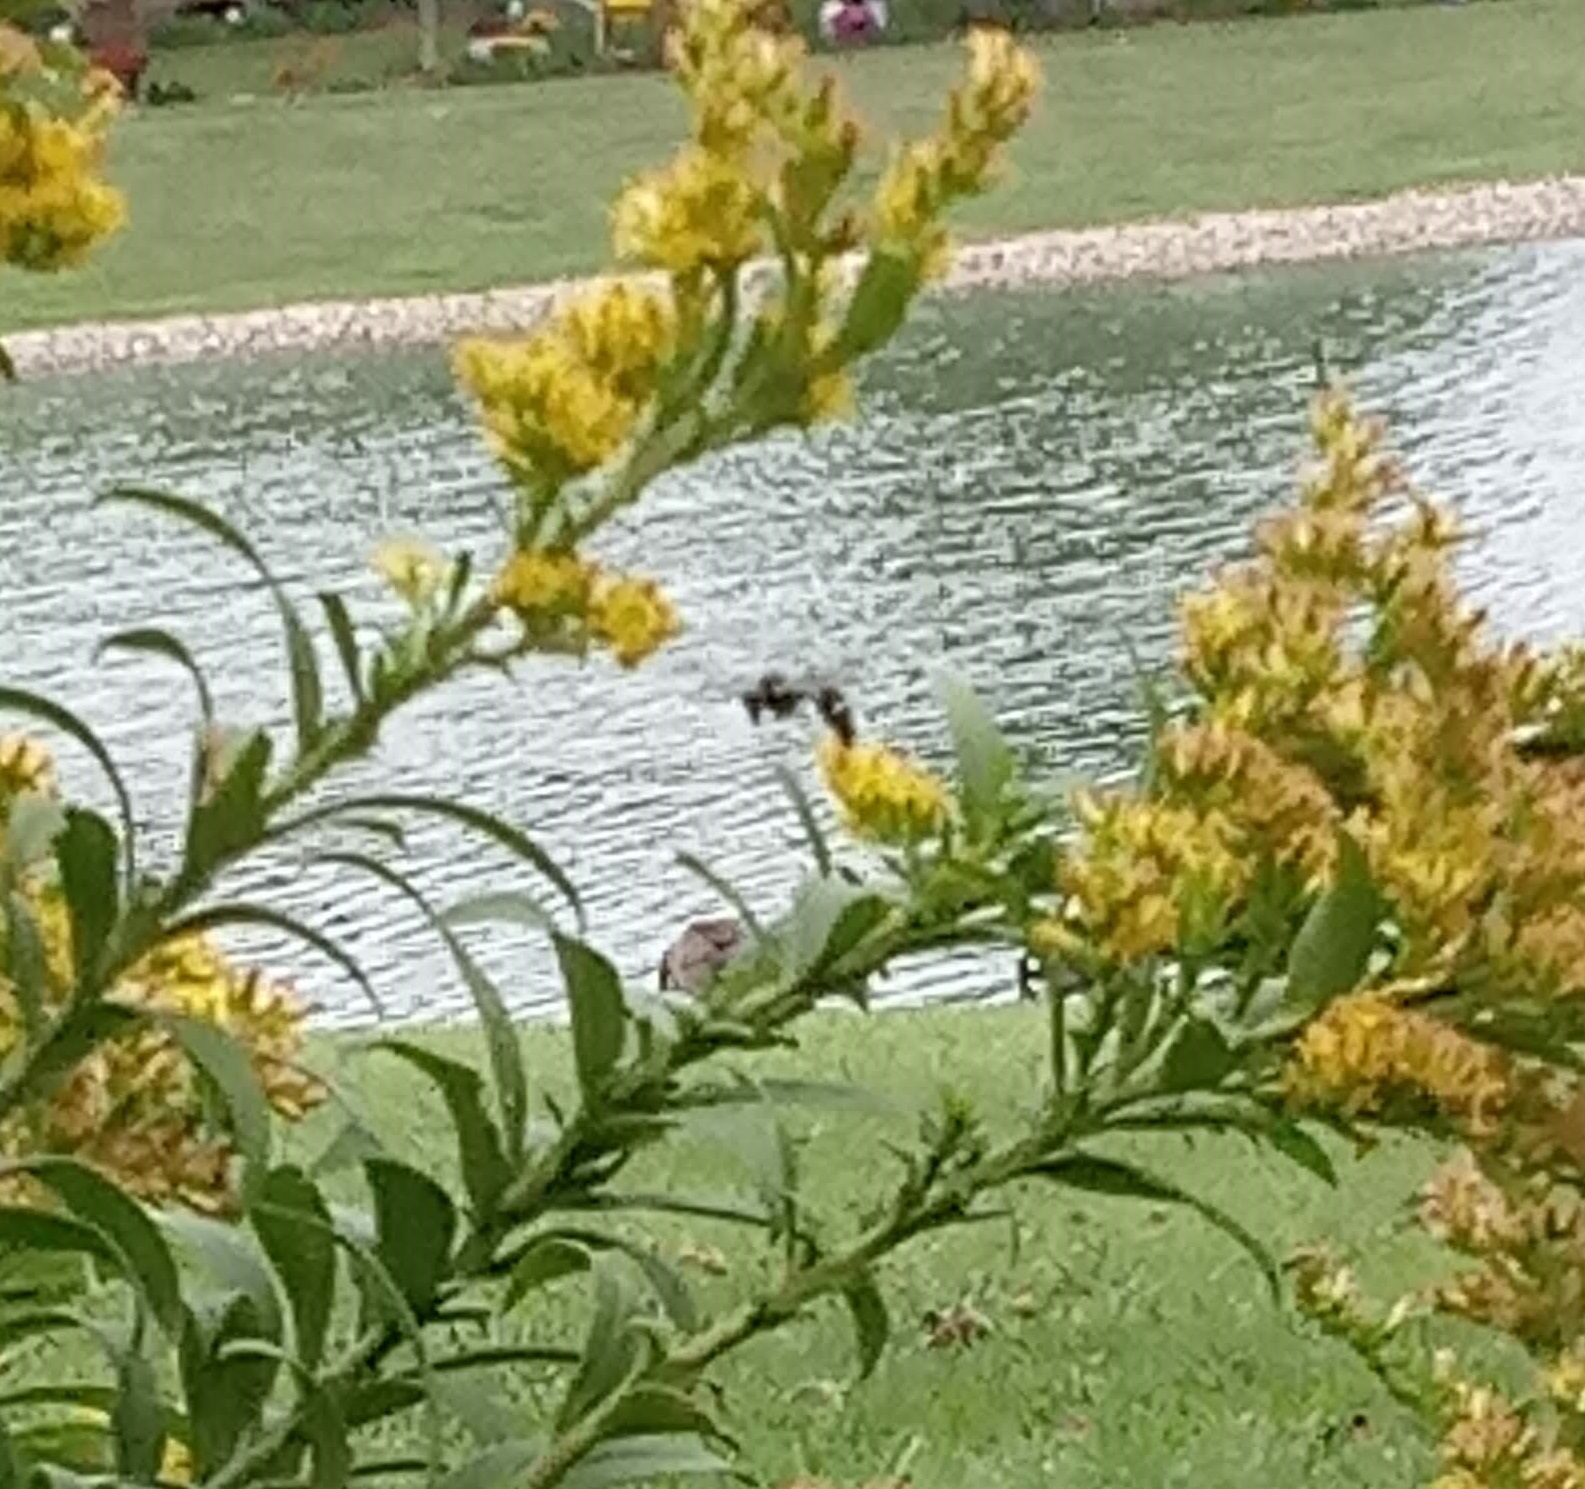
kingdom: Animalia
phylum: Arthropoda
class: Insecta
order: Hymenoptera
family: Vespidae
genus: Eumenes
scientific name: Eumenes
